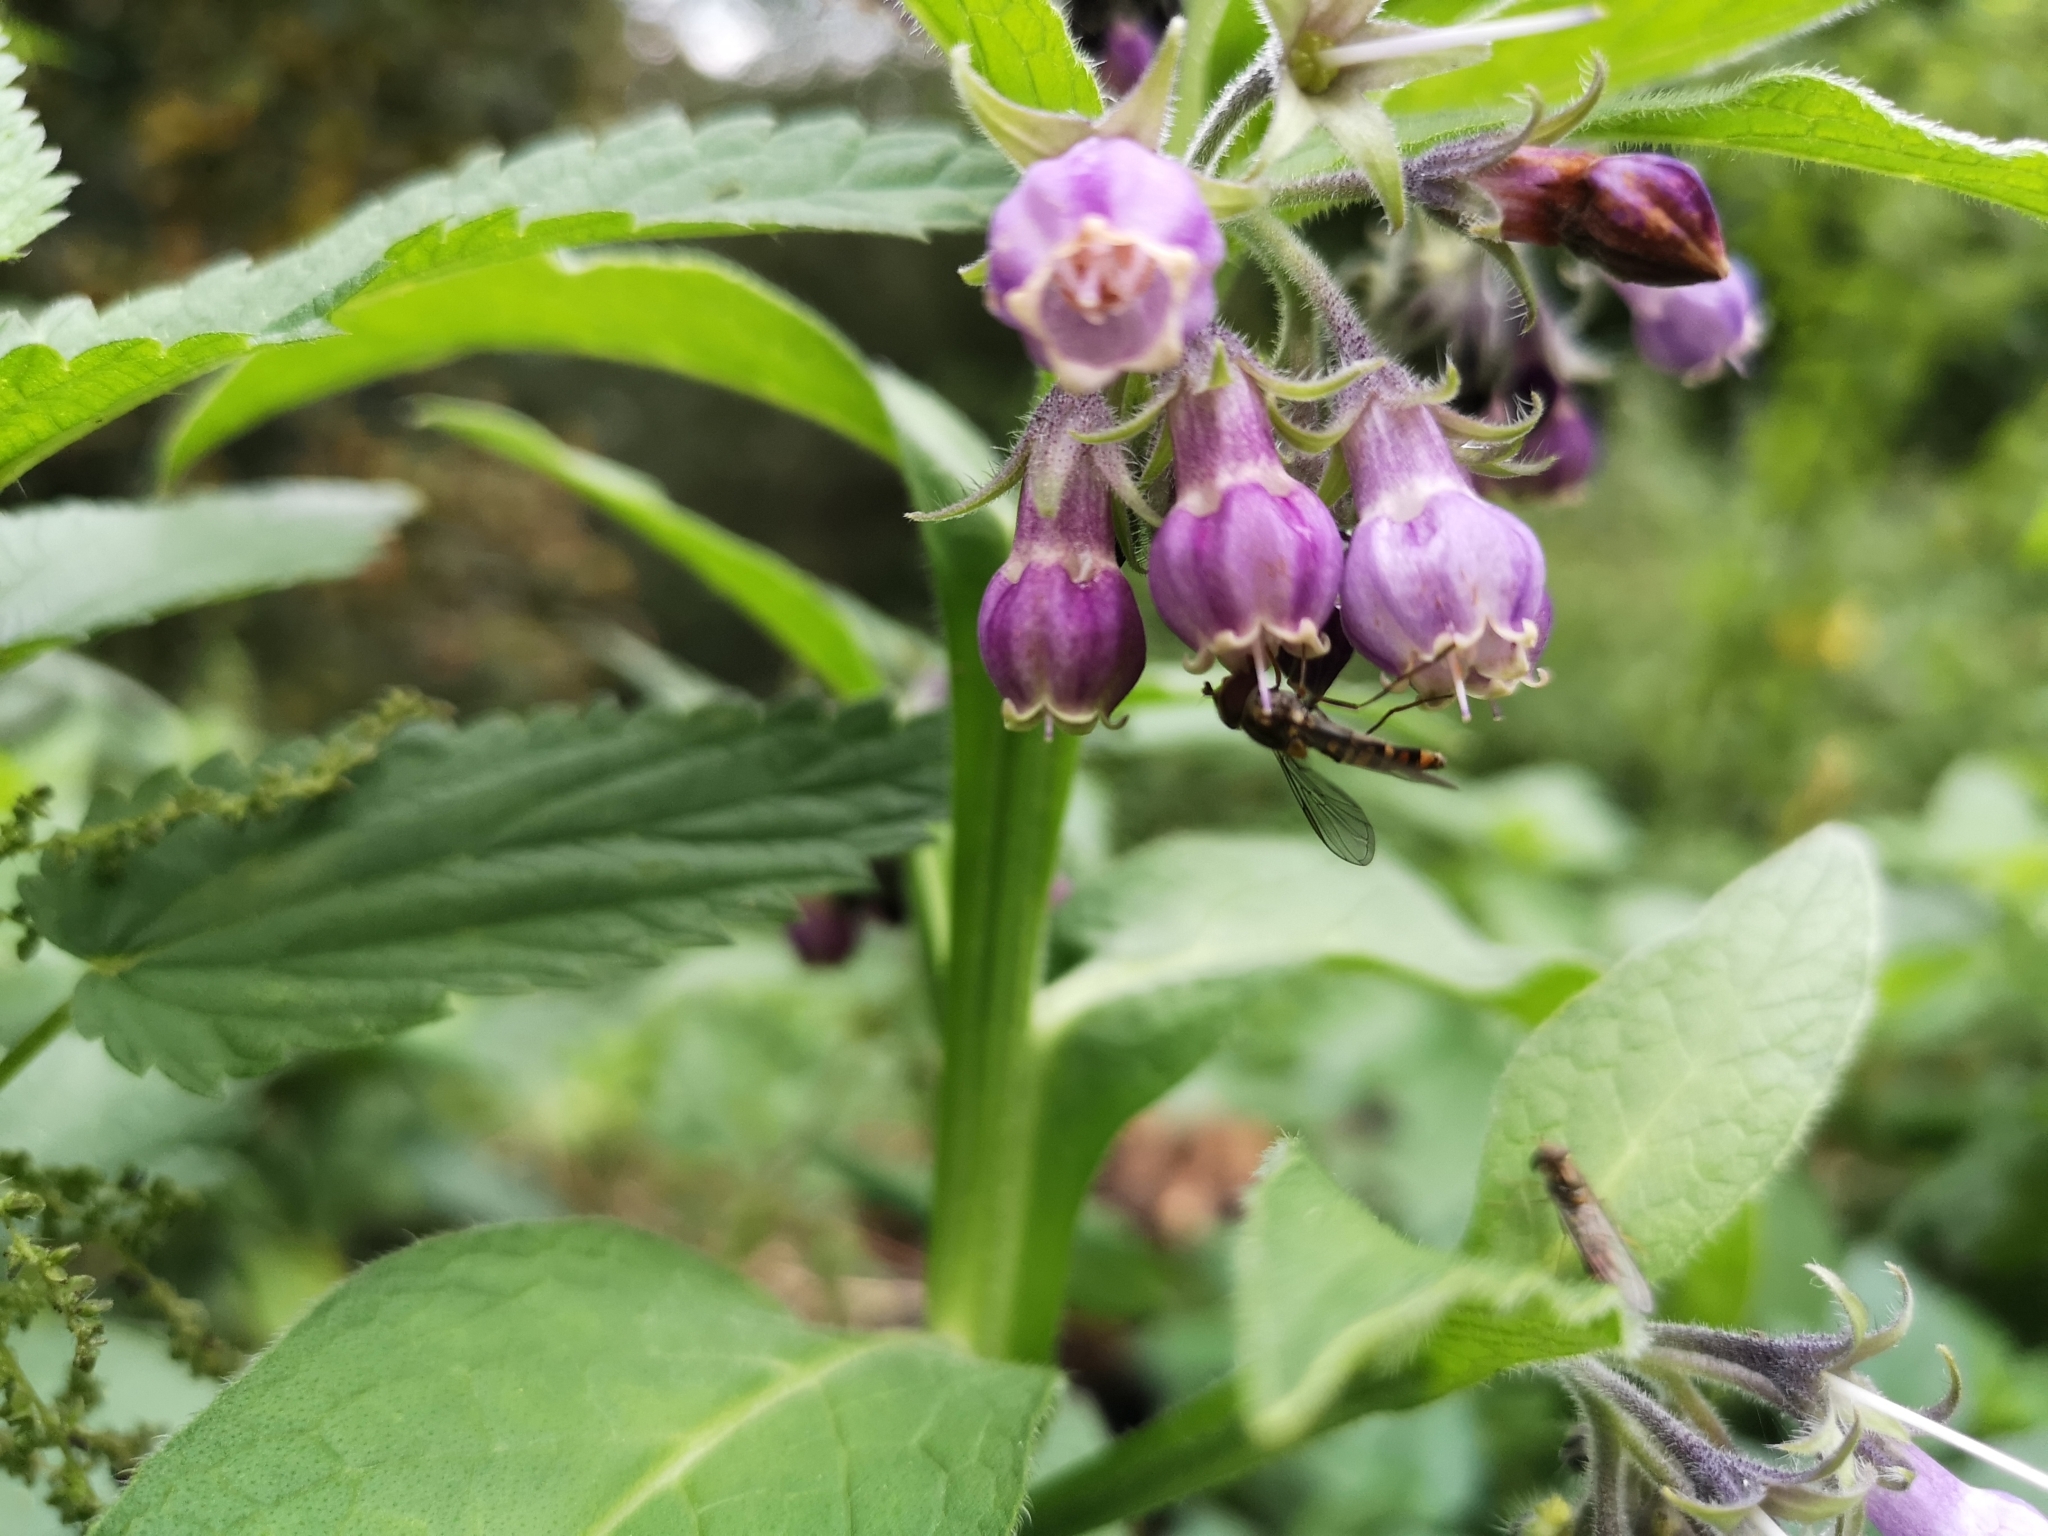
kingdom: Plantae
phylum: Tracheophyta
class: Magnoliopsida
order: Boraginales
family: Boraginaceae
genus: Symphytum
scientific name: Symphytum officinale
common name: Common comfrey
